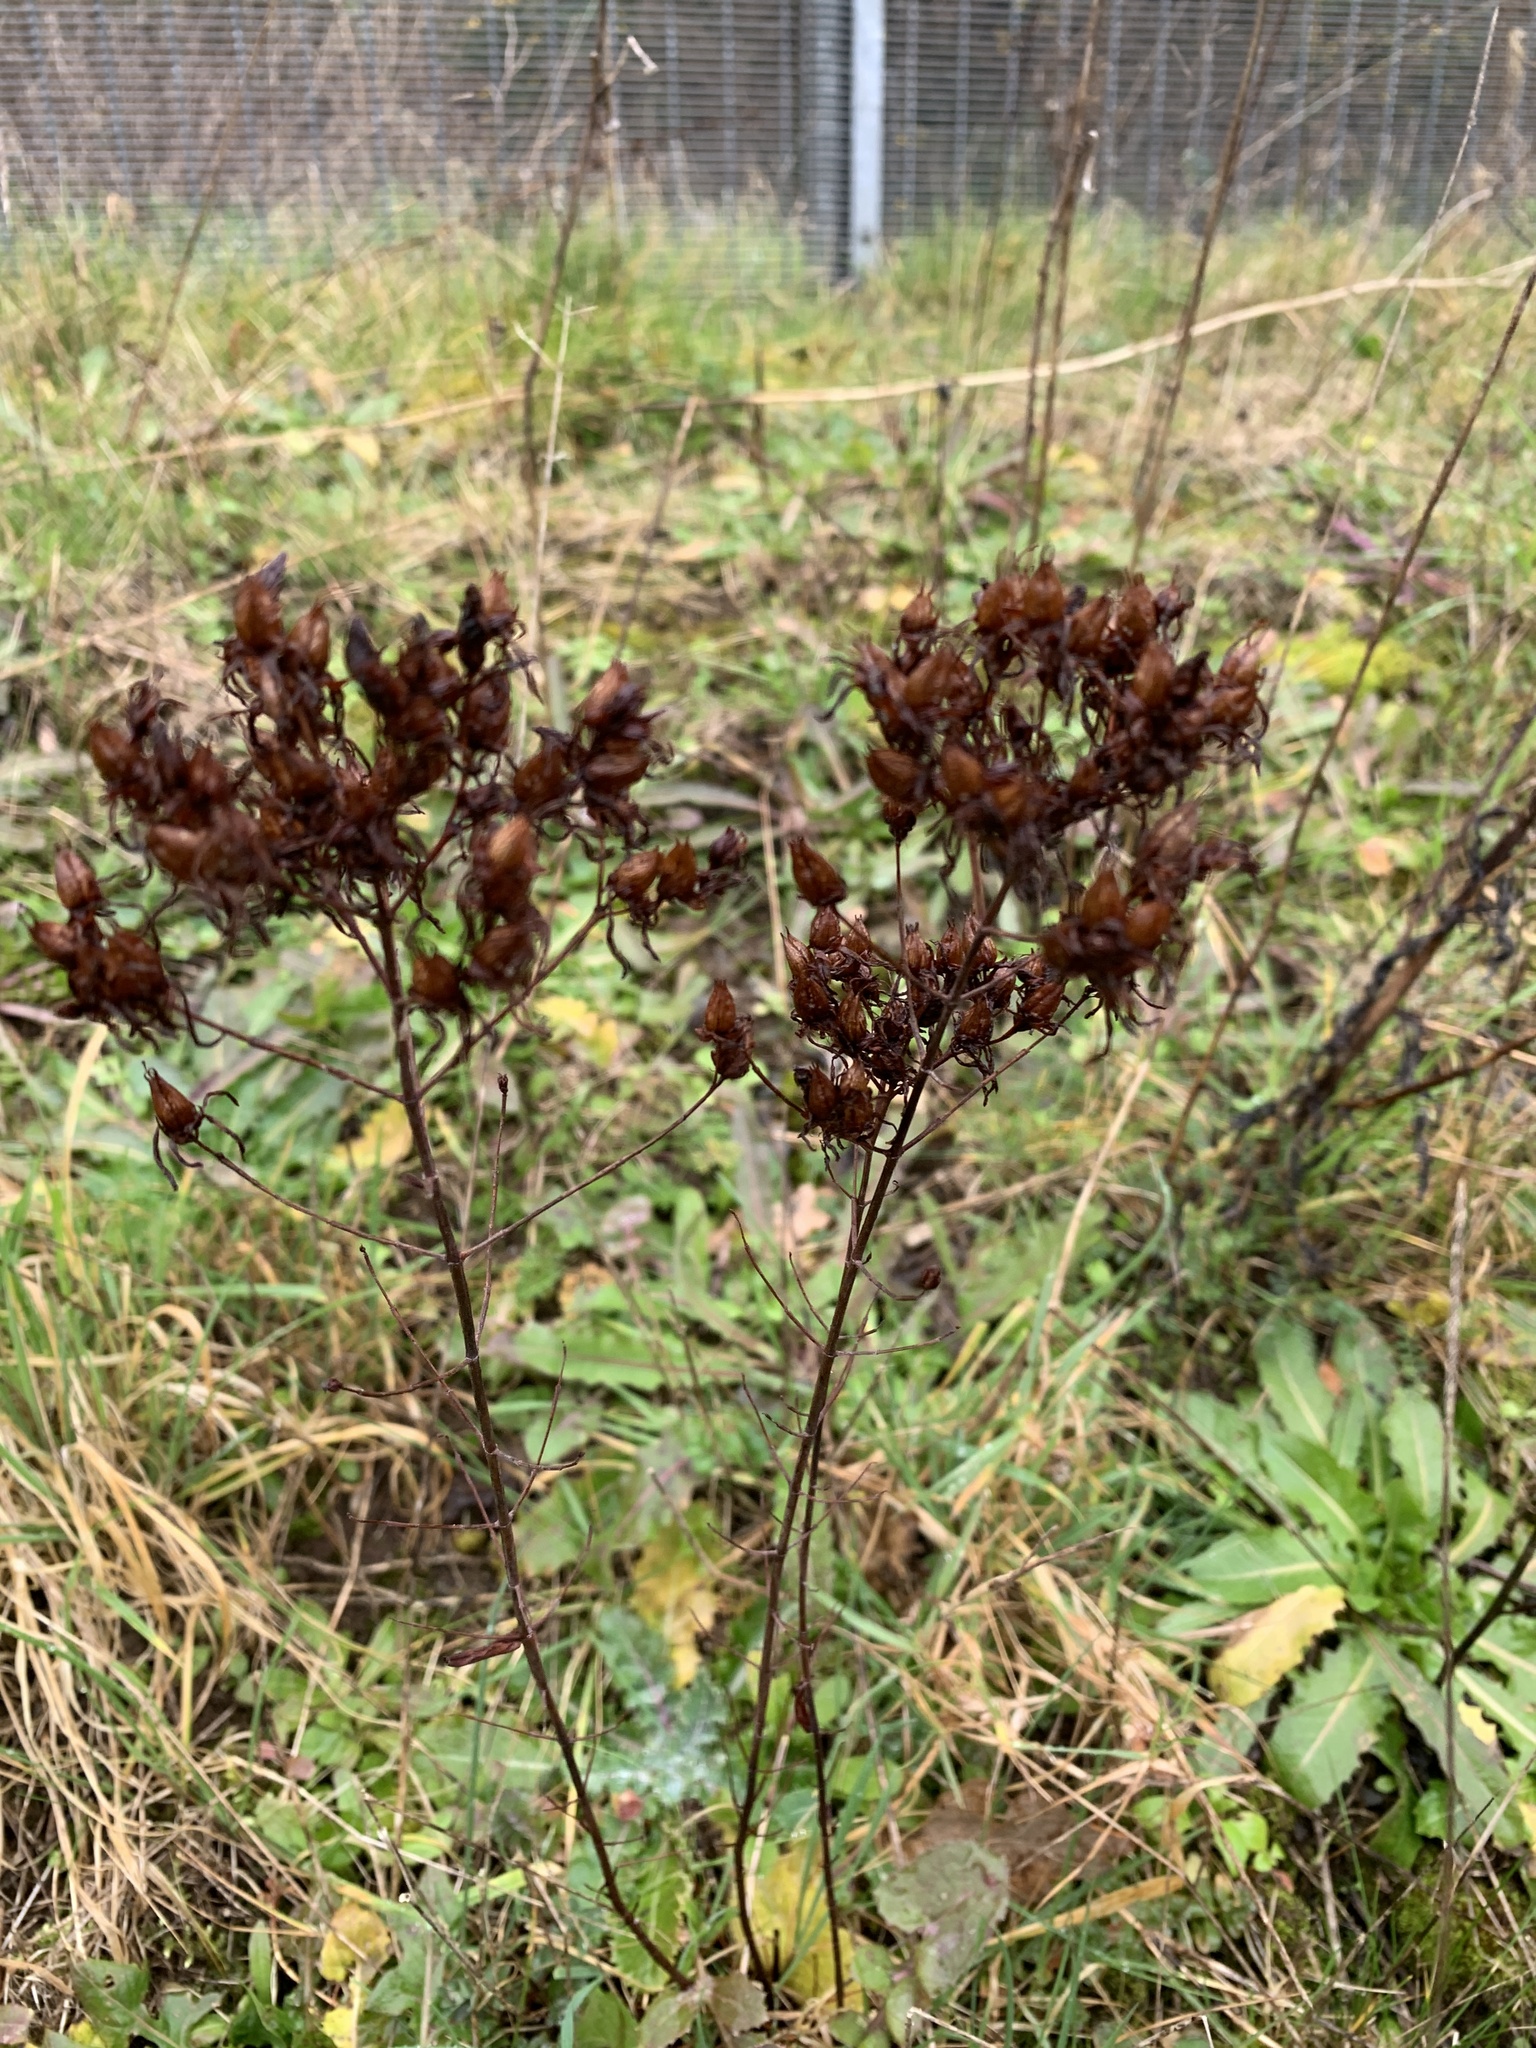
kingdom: Plantae
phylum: Tracheophyta
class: Magnoliopsida
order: Malpighiales
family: Hypericaceae
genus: Hypericum
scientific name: Hypericum perforatum
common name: Common st. johnswort
